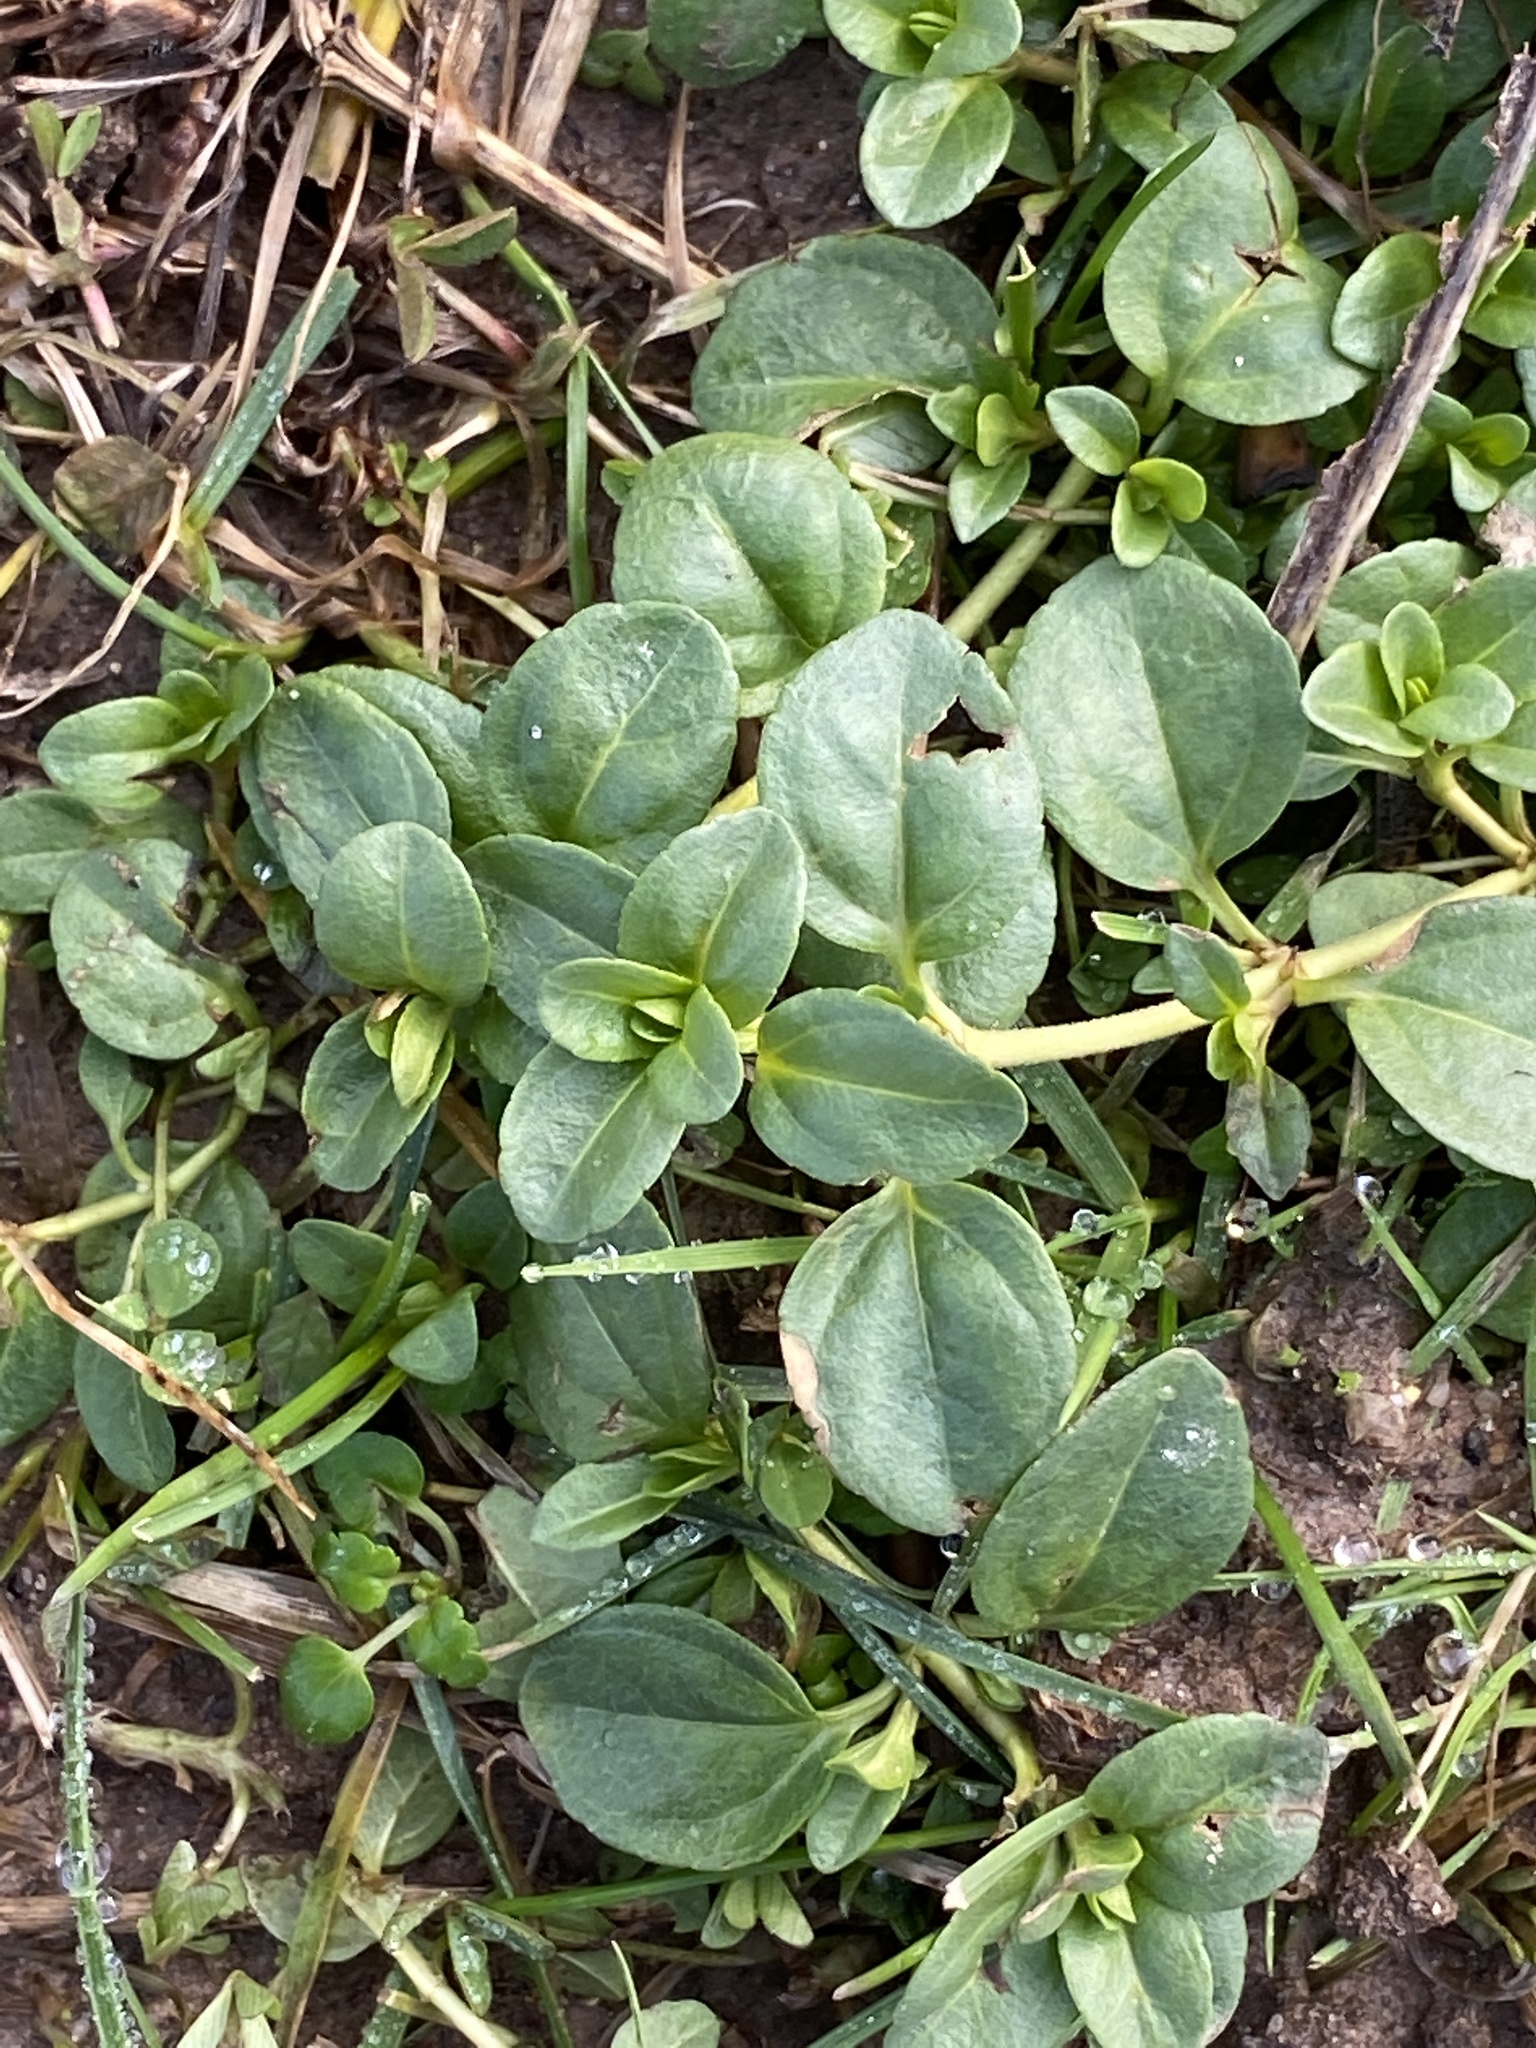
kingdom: Plantae
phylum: Tracheophyta
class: Magnoliopsida
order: Lamiales
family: Plantaginaceae
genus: Veronica
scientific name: Veronica serpyllifolia
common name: Thyme-leaved speedwell
